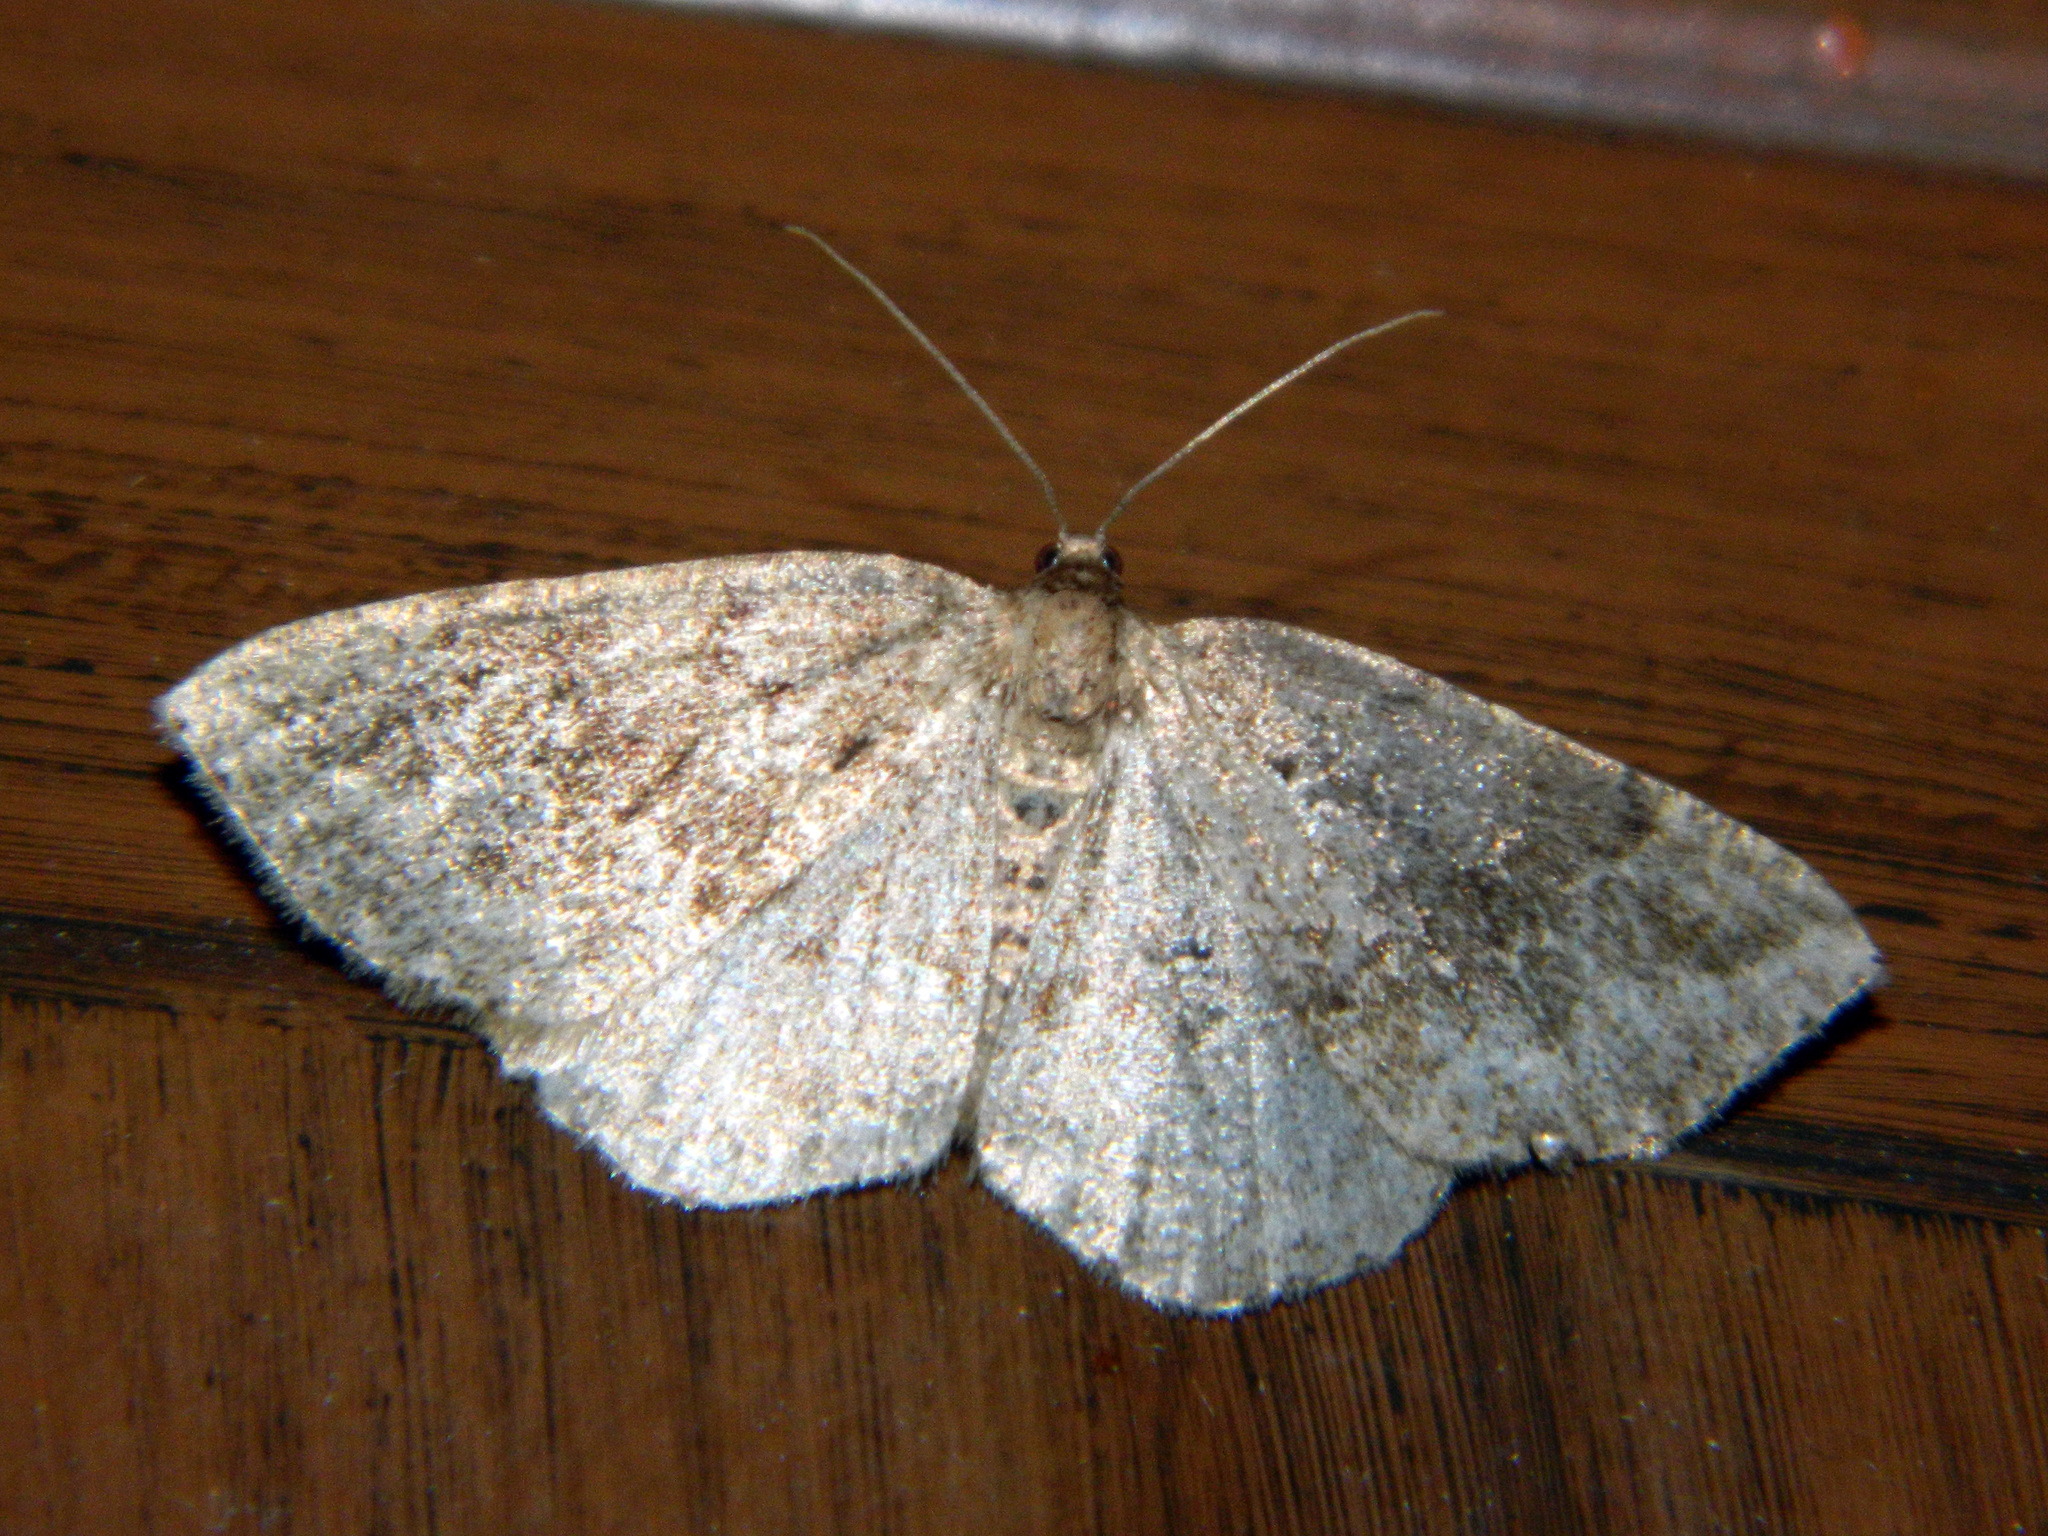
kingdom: Animalia
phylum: Arthropoda
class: Insecta
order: Lepidoptera
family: Geometridae
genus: Homochlodes
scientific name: Homochlodes fritillaria
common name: Pale homochlodes
